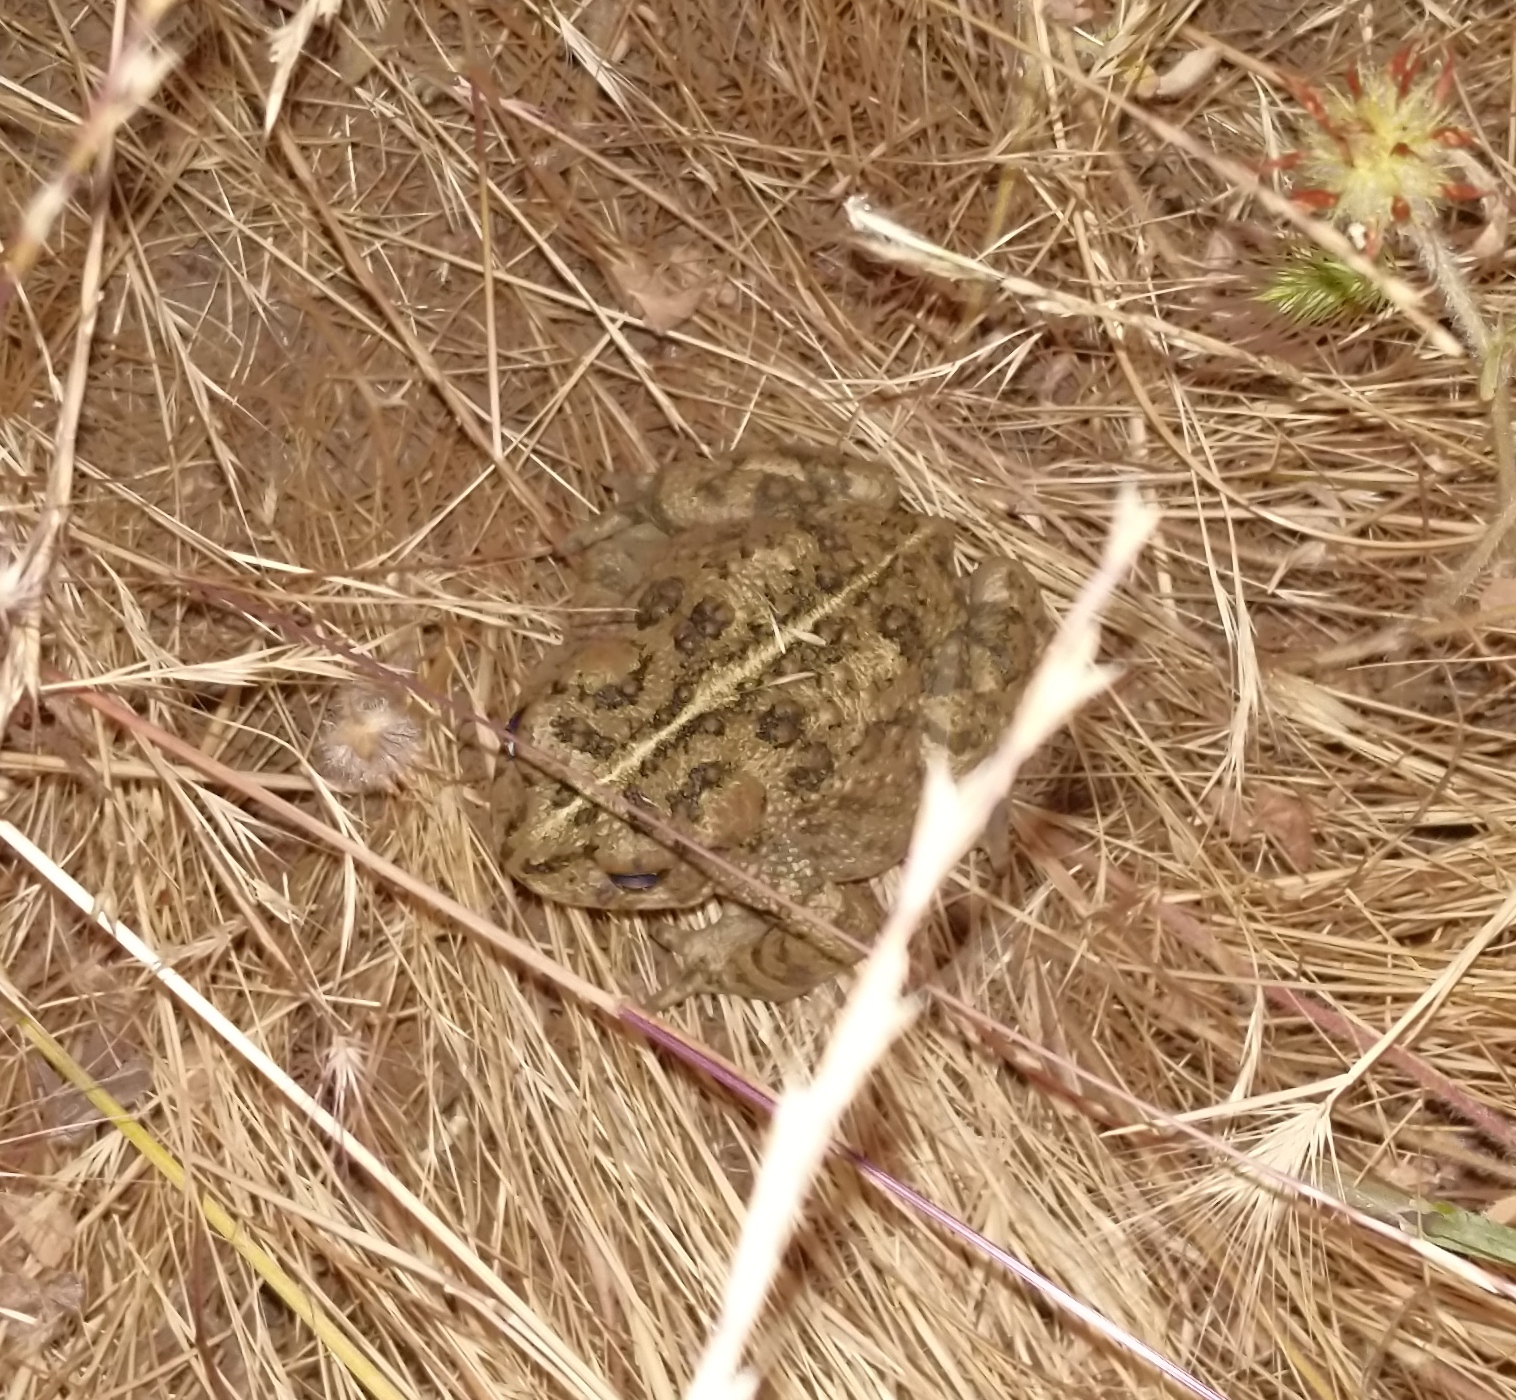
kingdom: Animalia
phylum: Chordata
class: Amphibia
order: Anura
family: Bufonidae
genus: Anaxyrus
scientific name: Anaxyrus boreas
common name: Western toad
